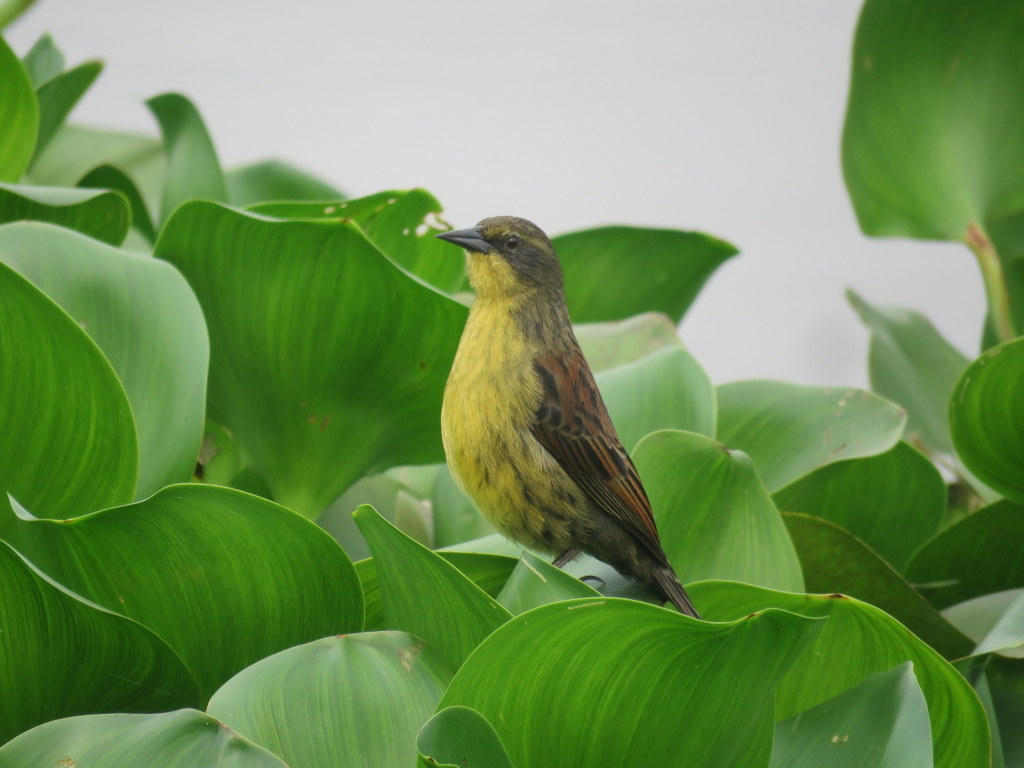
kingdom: Animalia
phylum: Chordata
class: Aves
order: Passeriformes
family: Icteridae
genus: Agelasticus
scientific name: Agelasticus cyanopus
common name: Unicolored blackbird
